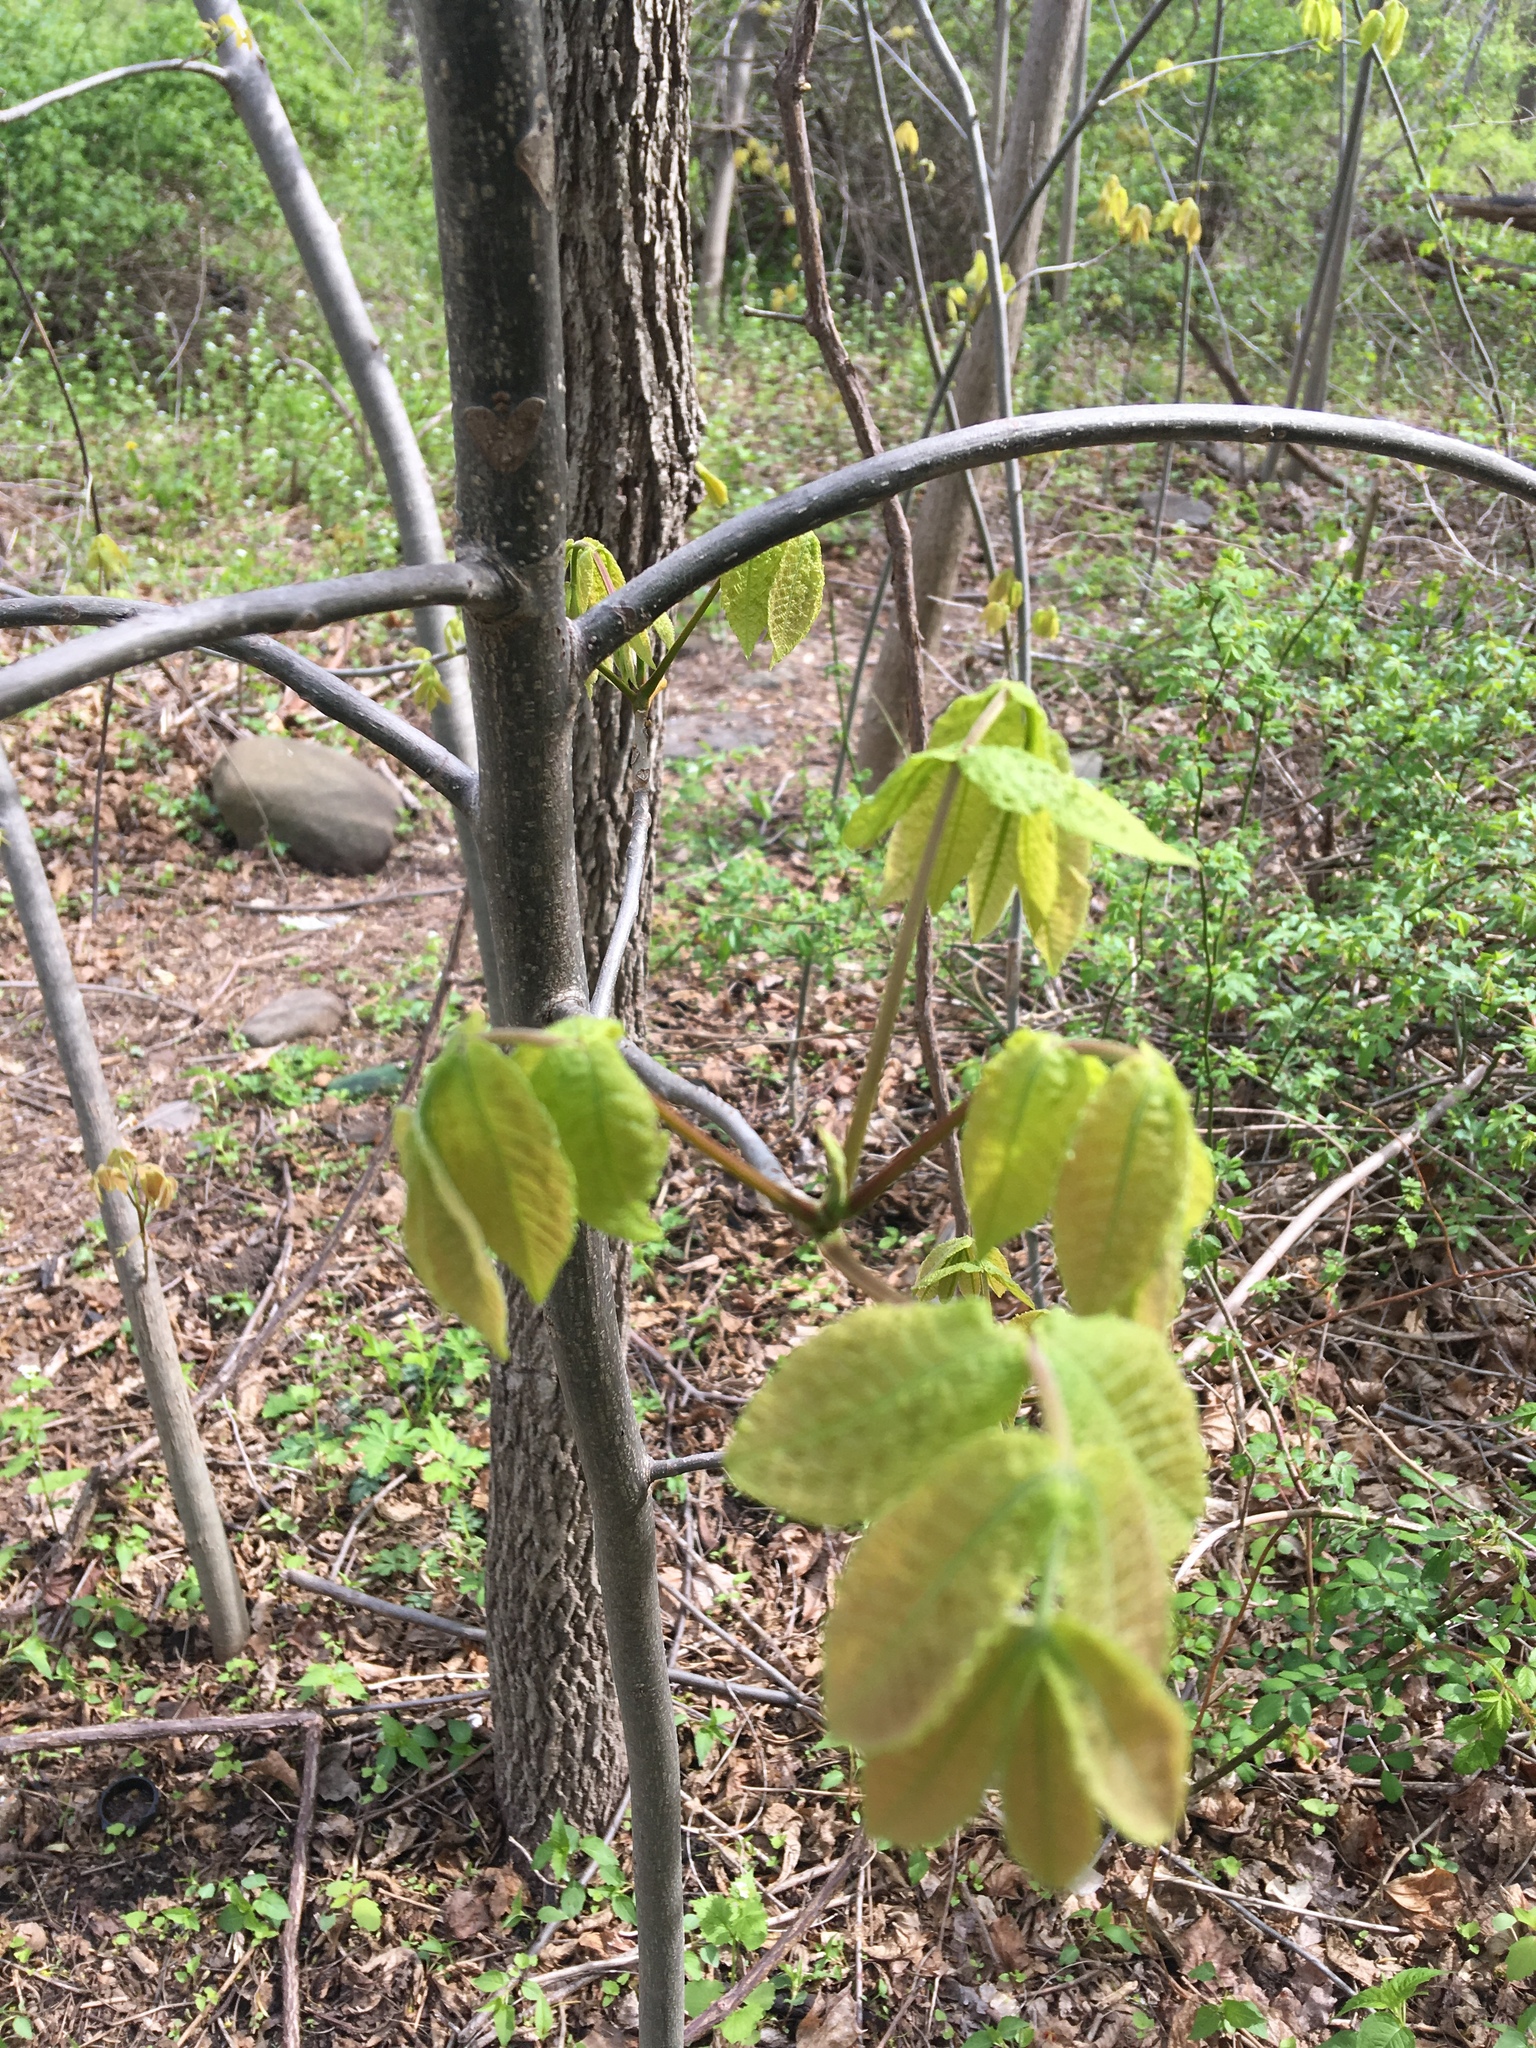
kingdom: Plantae
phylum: Tracheophyta
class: Magnoliopsida
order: Fagales
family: Juglandaceae
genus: Carya
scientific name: Carya cordiformis
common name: Bitternut hickory
